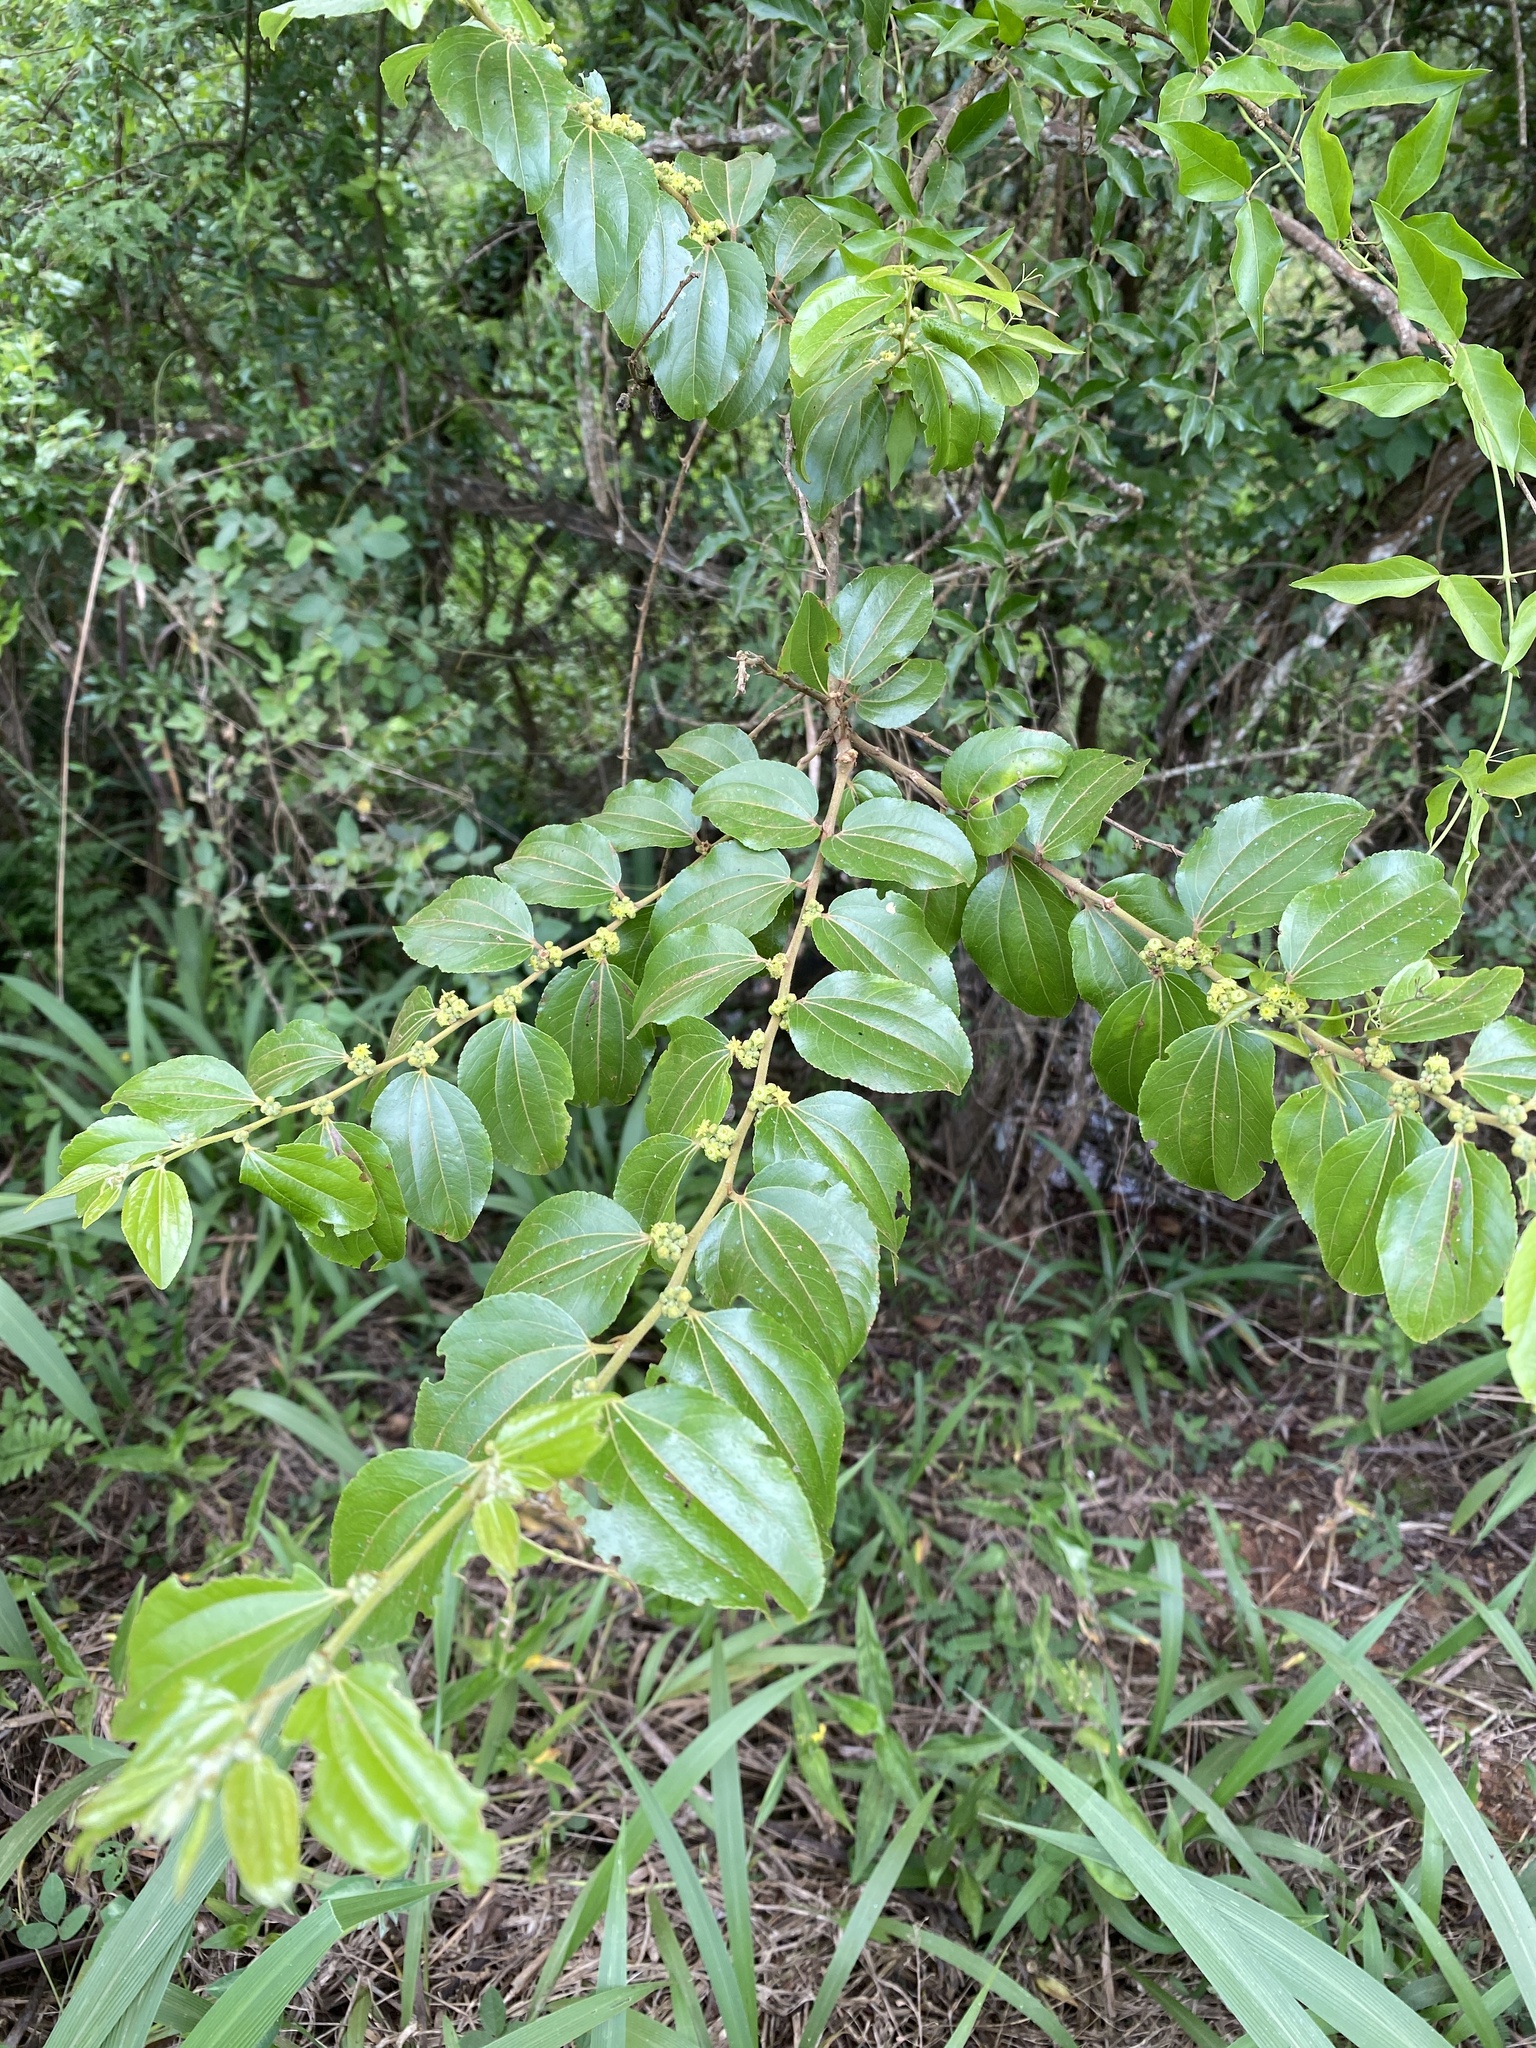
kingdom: Plantae
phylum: Tracheophyta
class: Magnoliopsida
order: Rosales
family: Rhamnaceae
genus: Ziziphus
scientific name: Ziziphus mucronata
